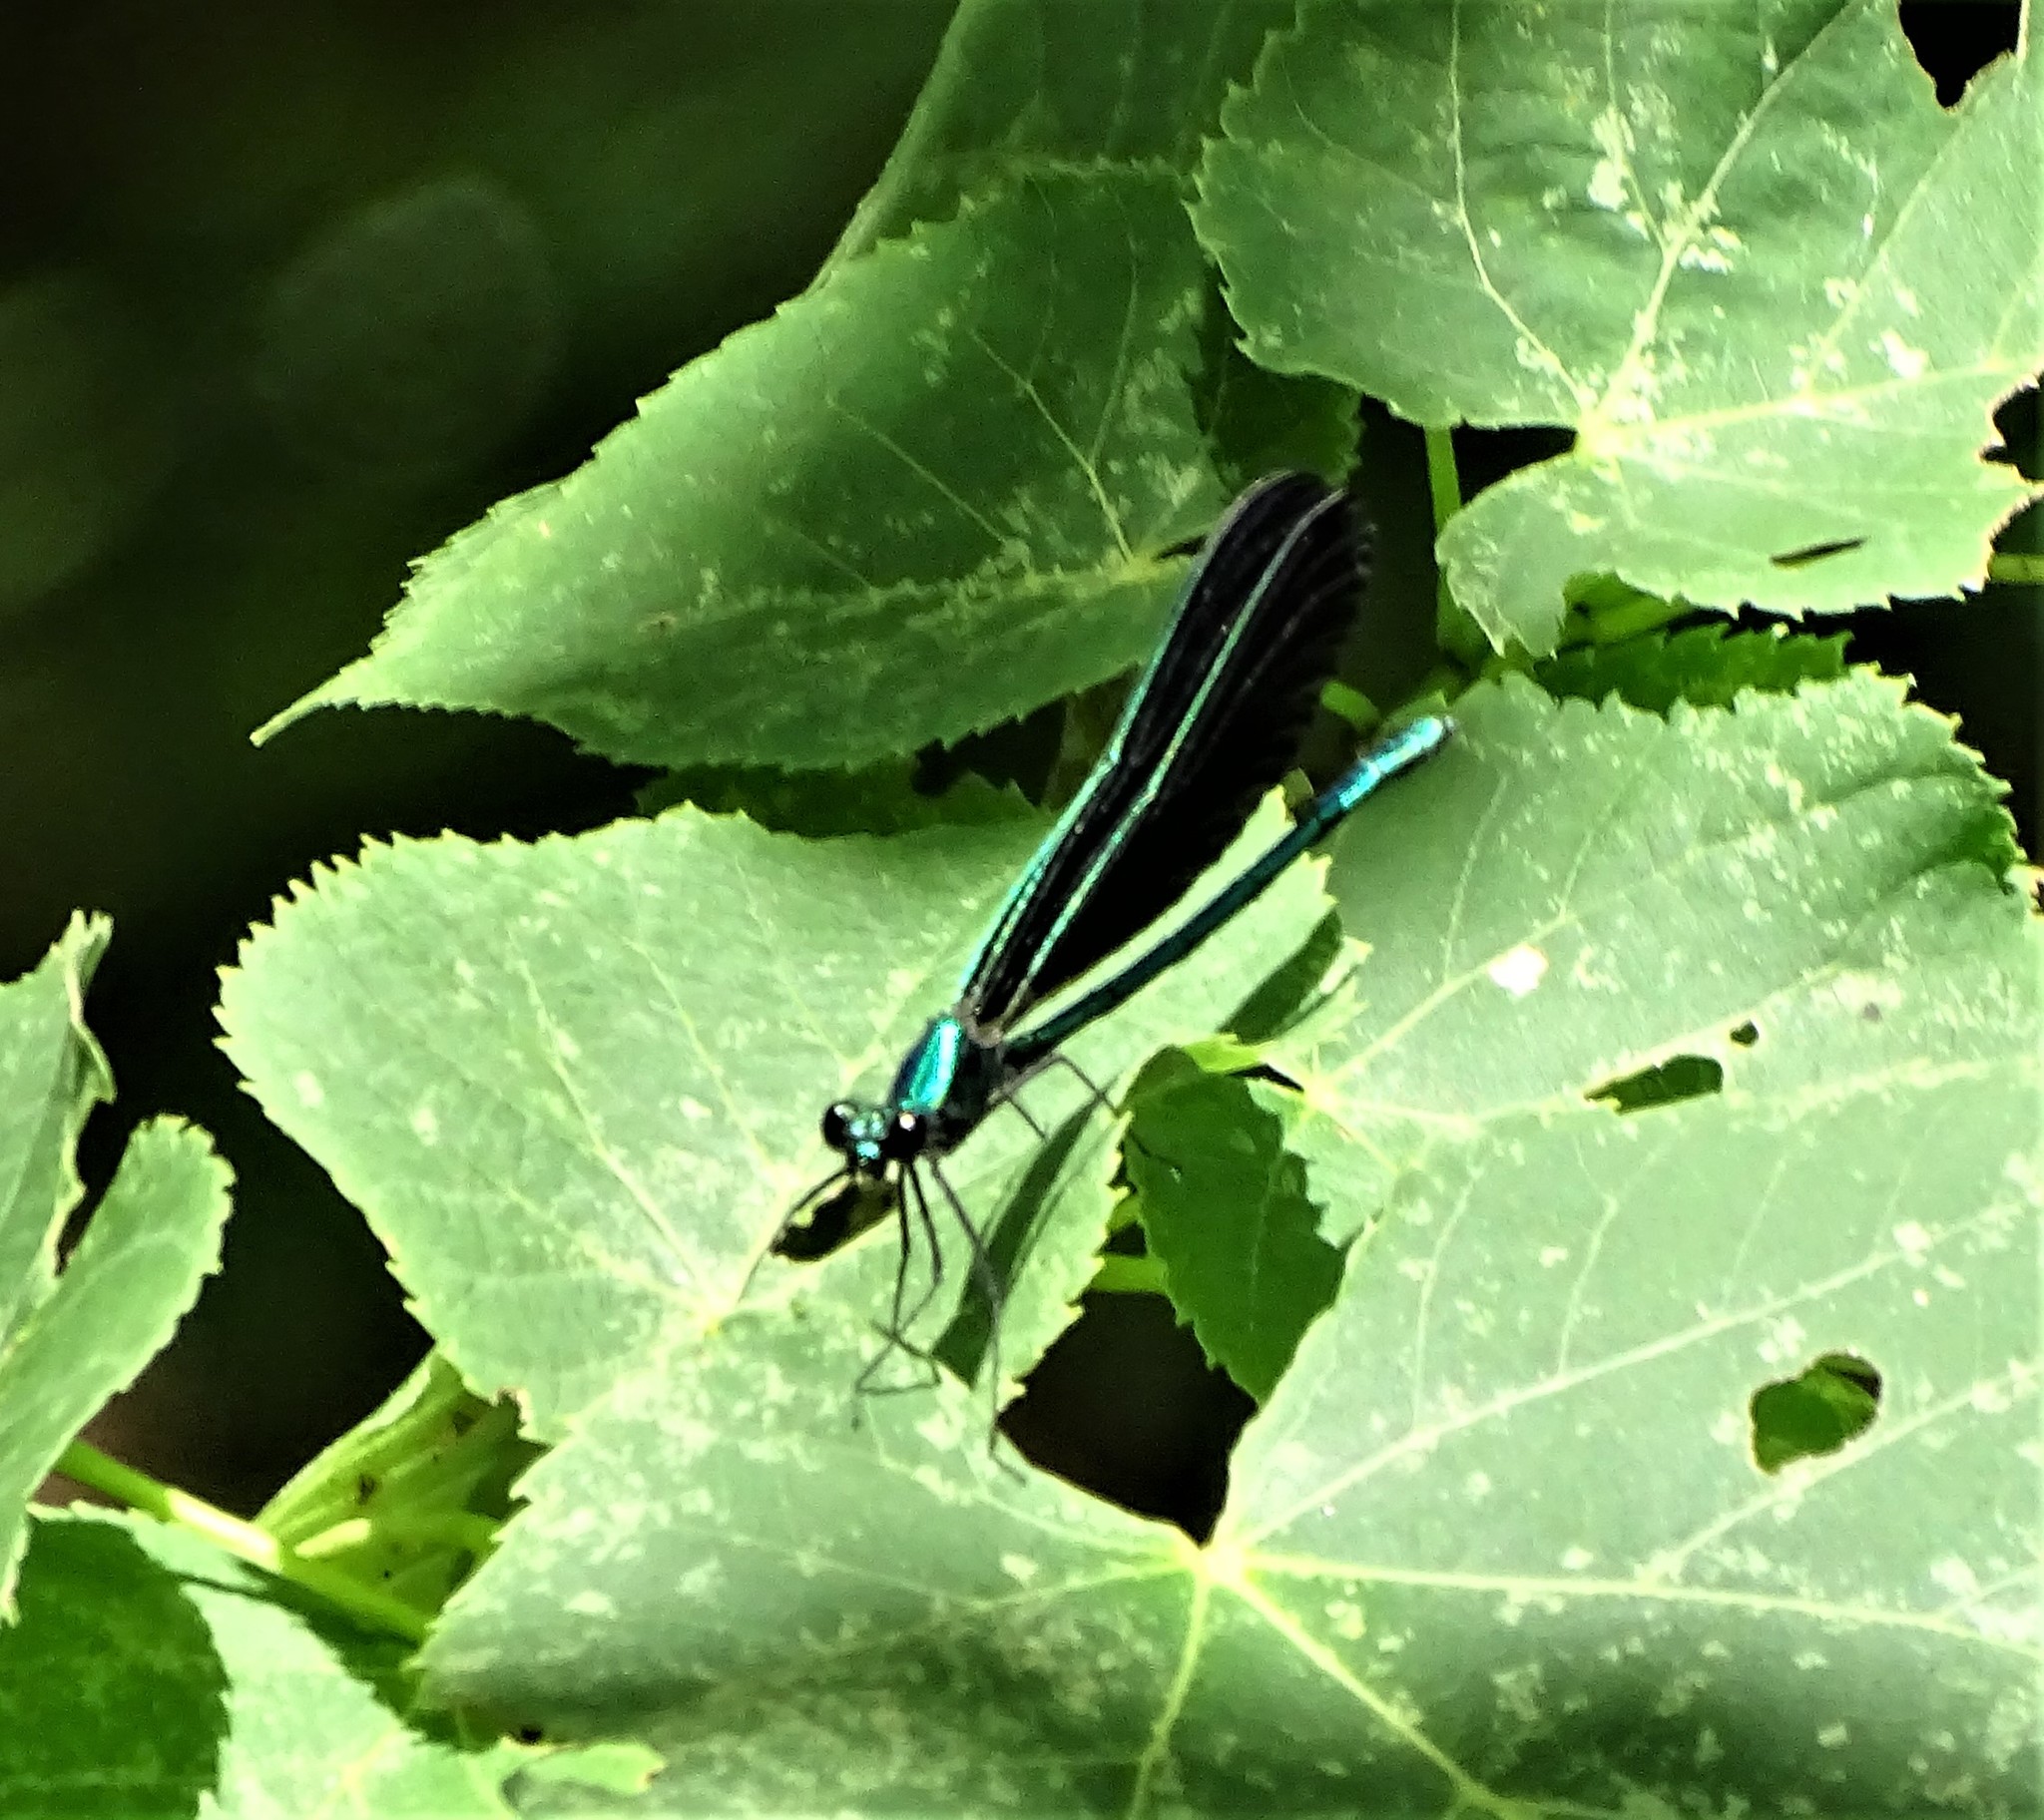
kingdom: Animalia
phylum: Arthropoda
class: Insecta
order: Odonata
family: Calopterygidae
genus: Calopteryx
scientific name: Calopteryx maculata
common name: Ebony jewelwing
